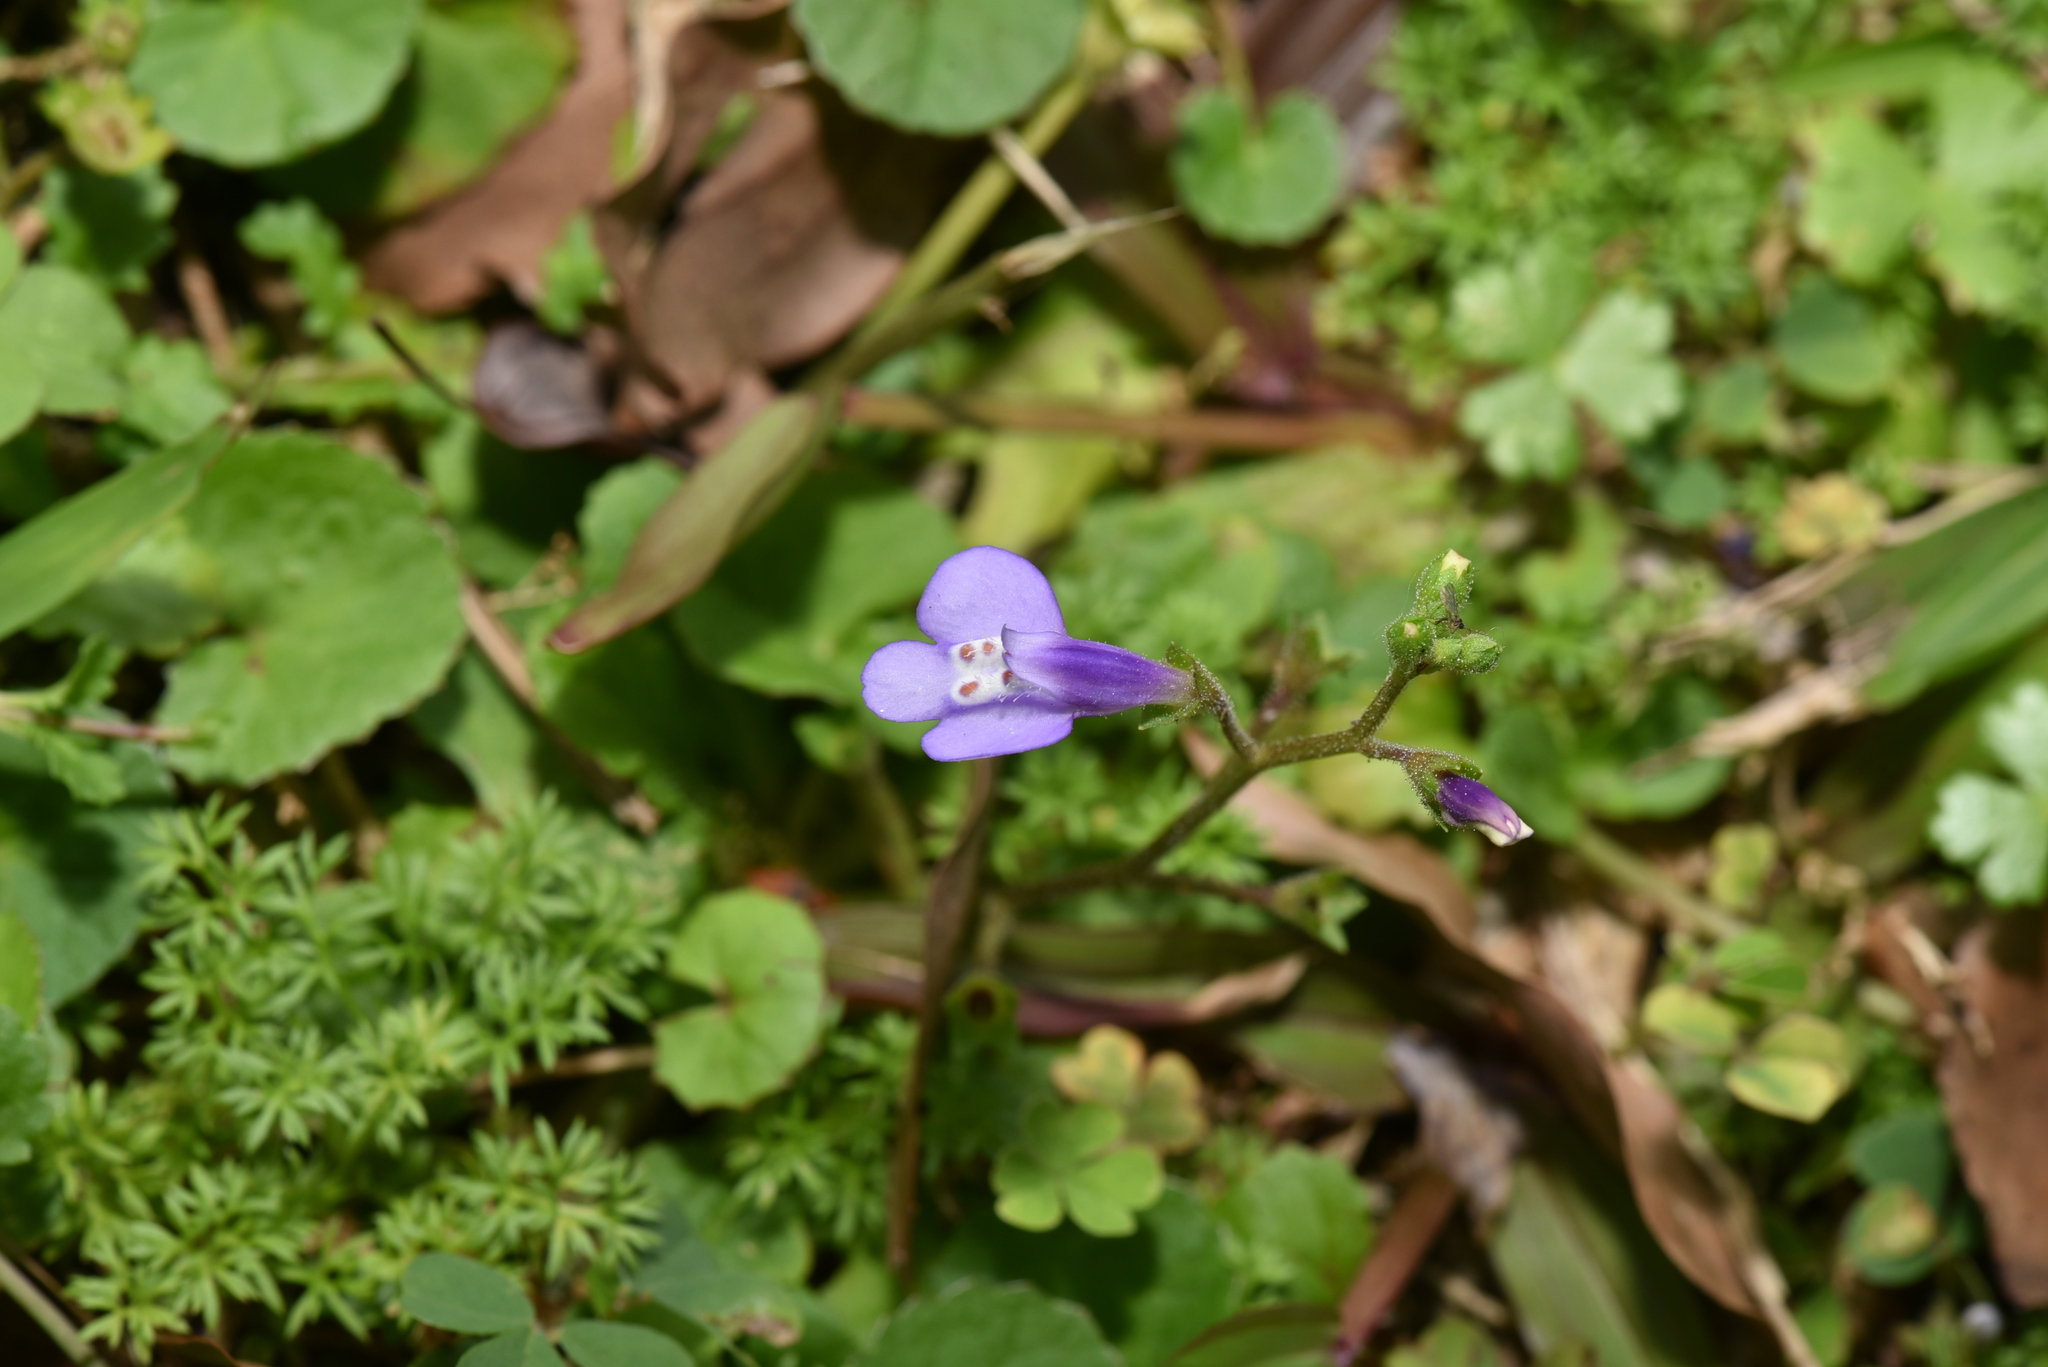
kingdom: Plantae
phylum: Tracheophyta
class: Magnoliopsida
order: Lamiales
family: Mazaceae
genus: Mazus
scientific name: Mazus fauriei
